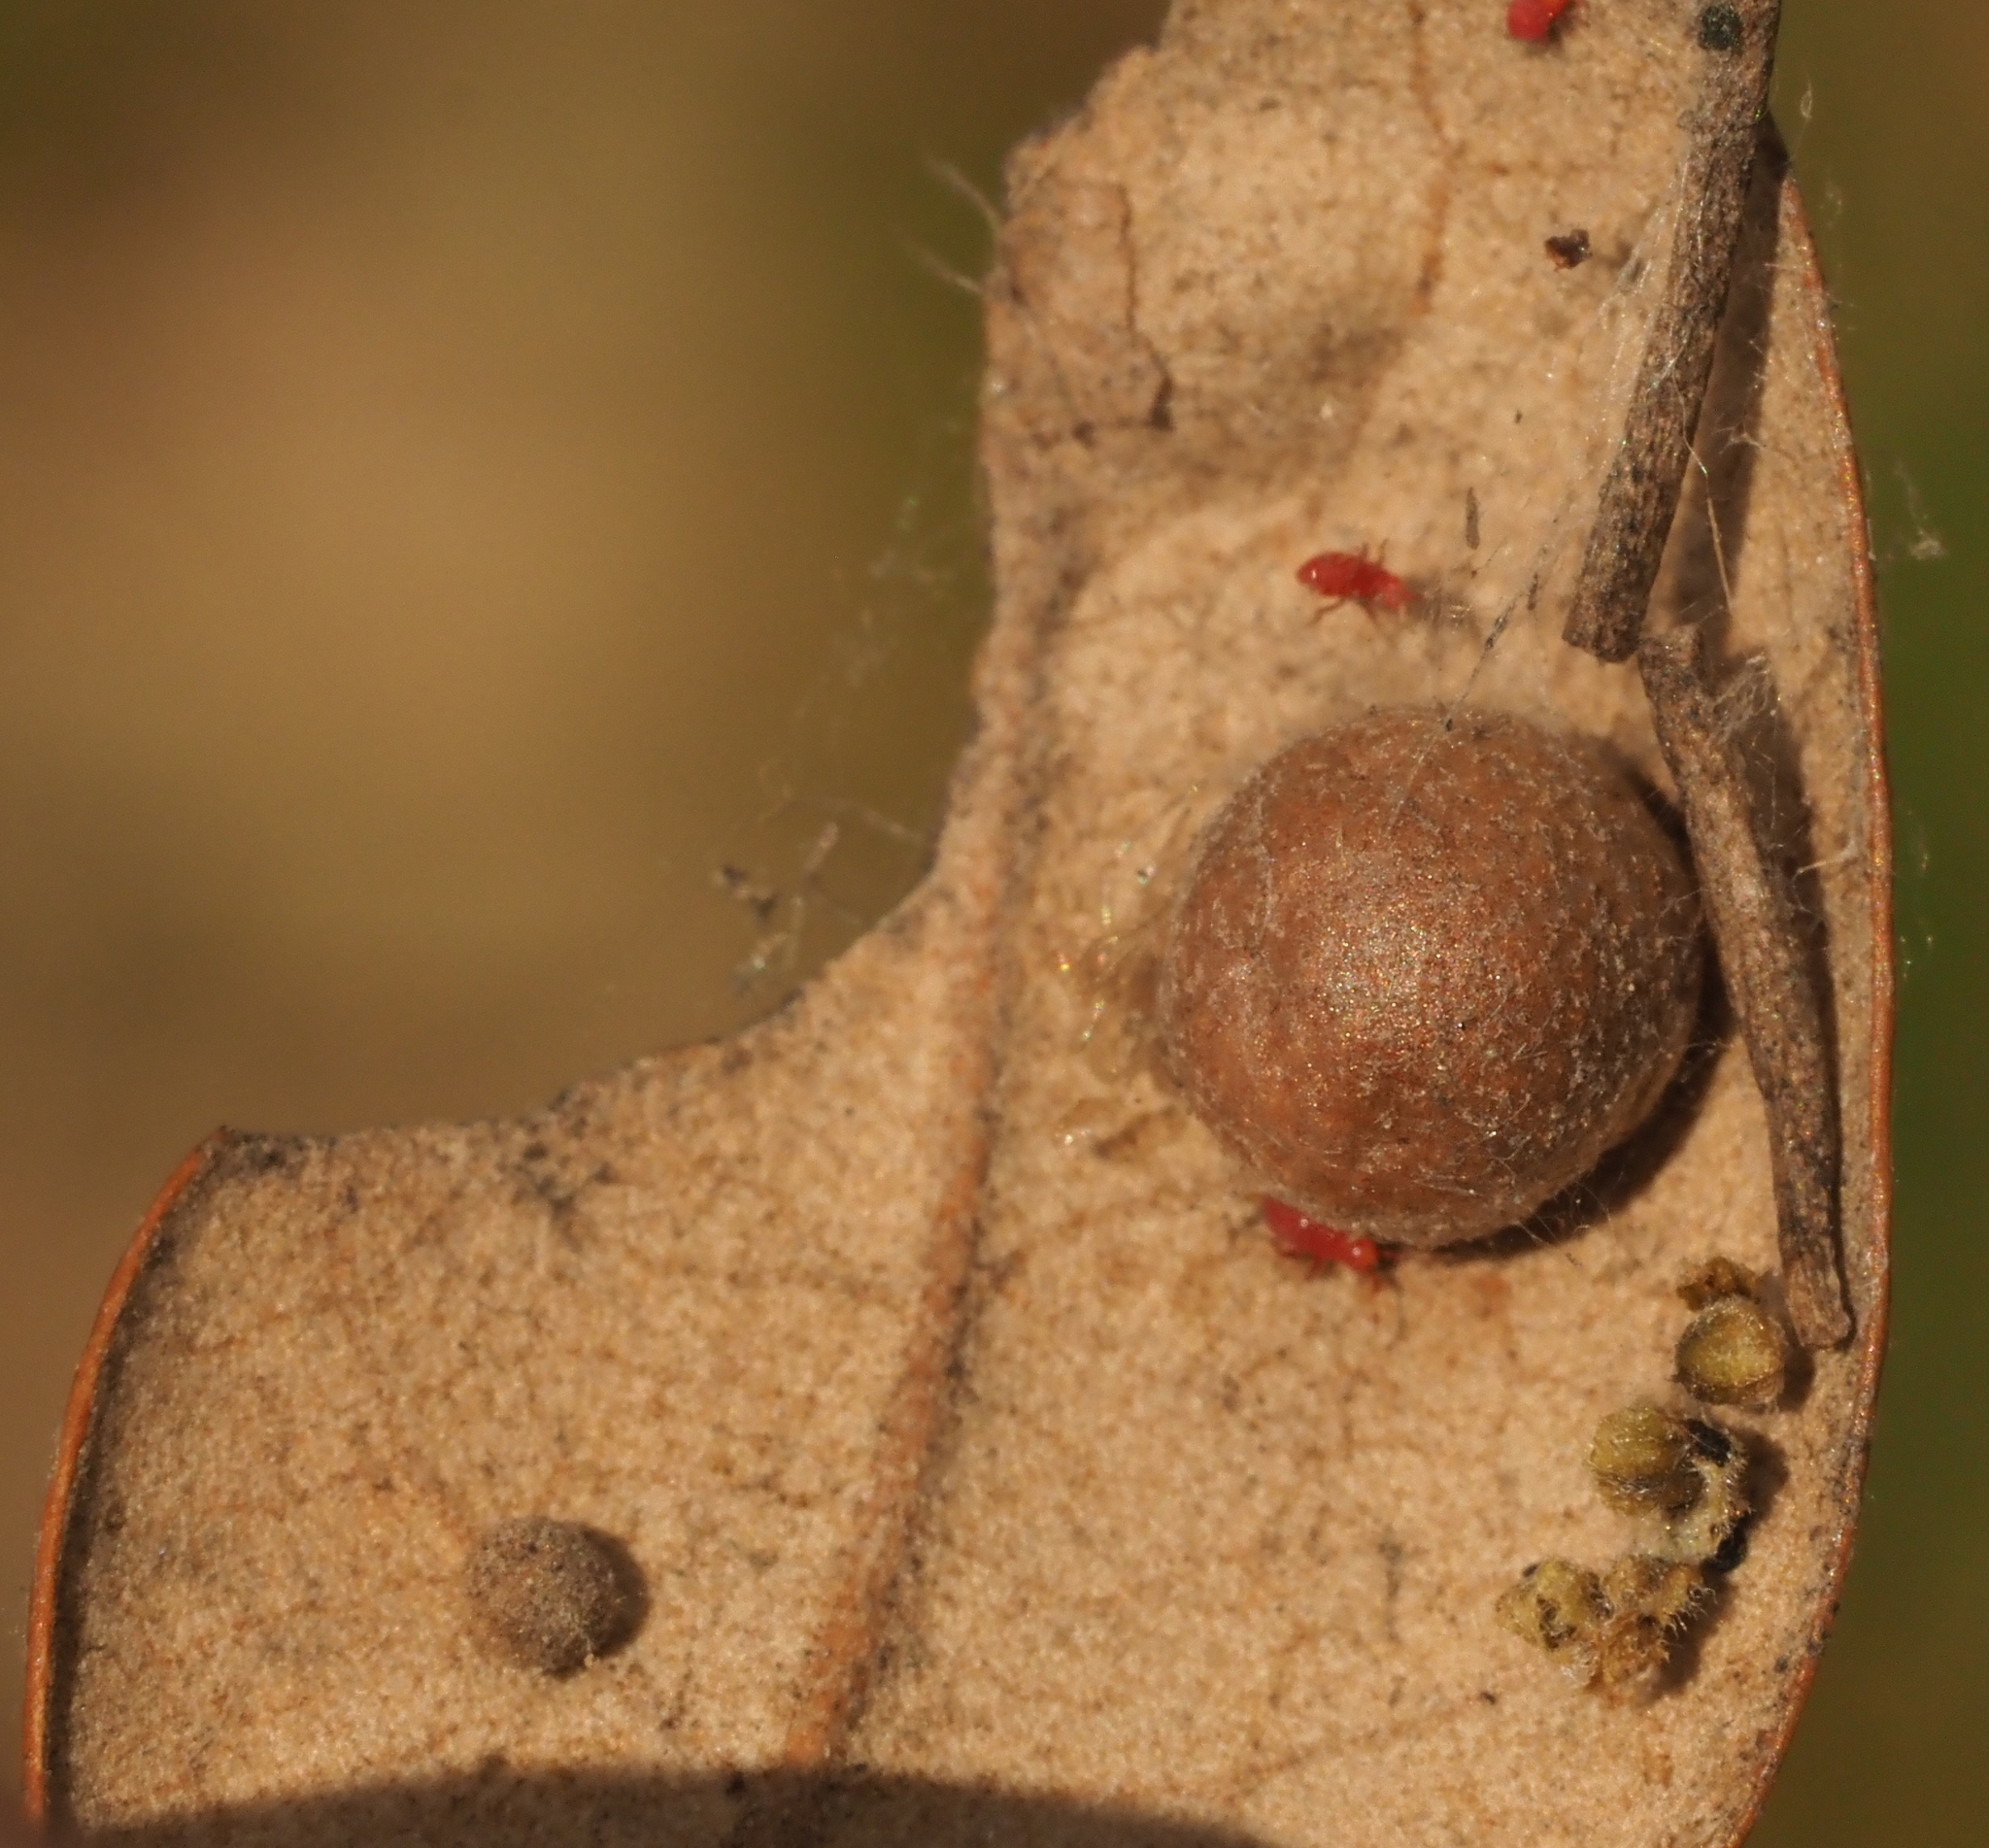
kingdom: Animalia
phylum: Arthropoda
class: Insecta
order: Hymenoptera
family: Cynipidae
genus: Belonocnema
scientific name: Belonocnema kinseyi
